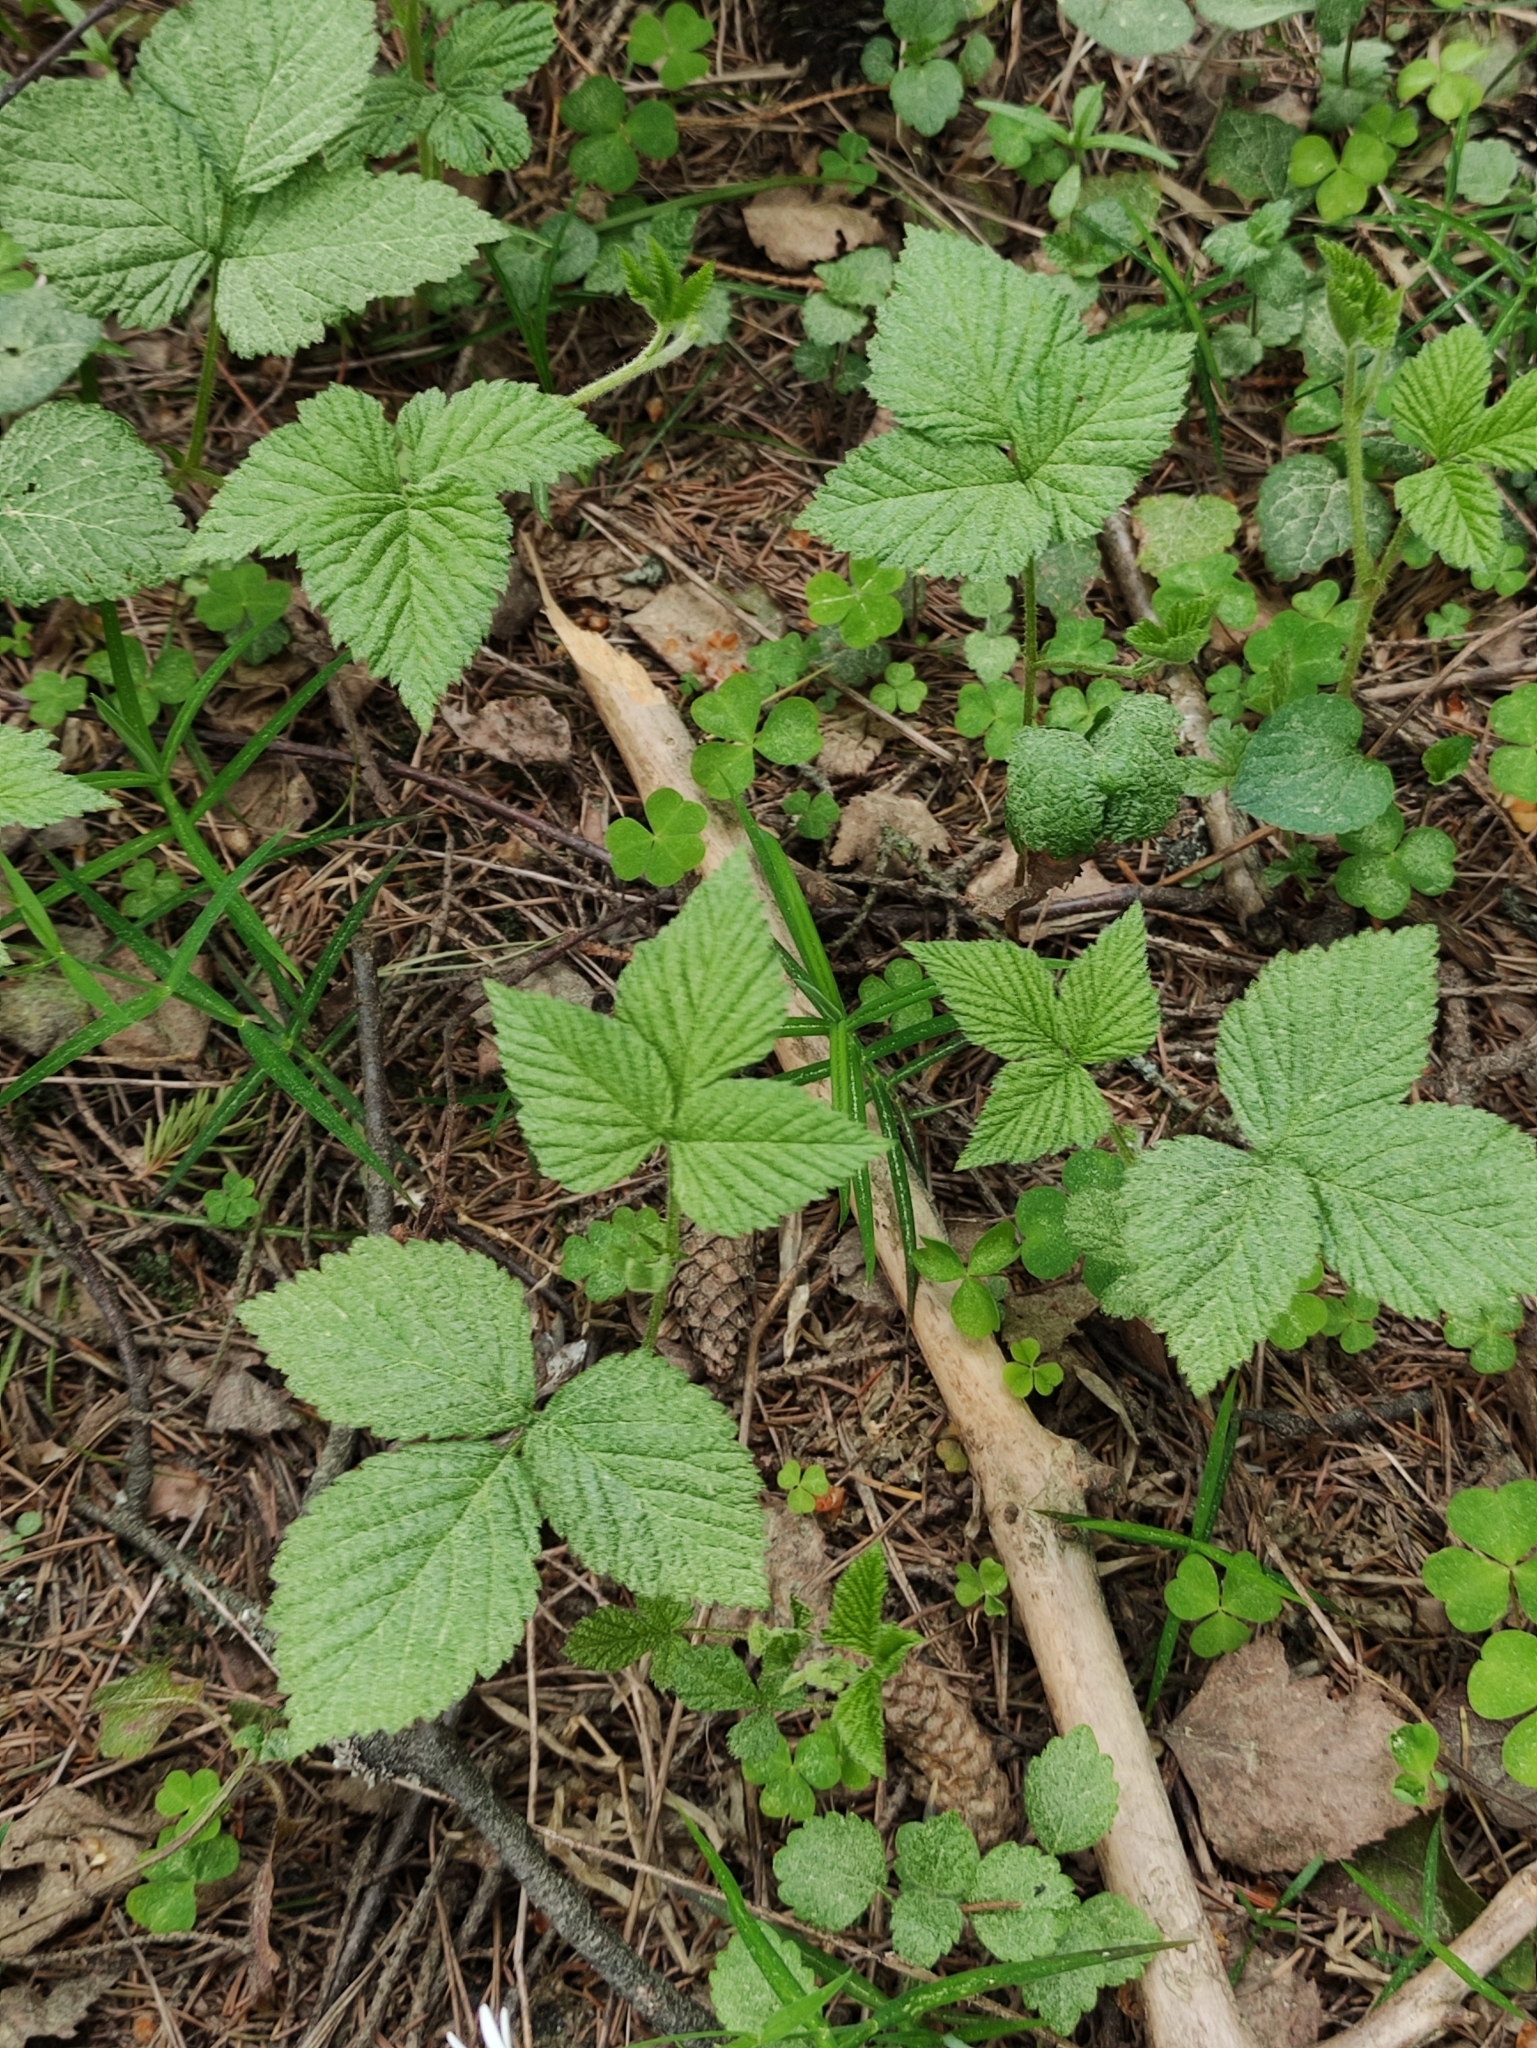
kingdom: Plantae
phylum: Tracheophyta
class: Magnoliopsida
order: Rosales
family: Rosaceae
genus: Rubus
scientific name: Rubus saxatilis
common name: Stone bramble
